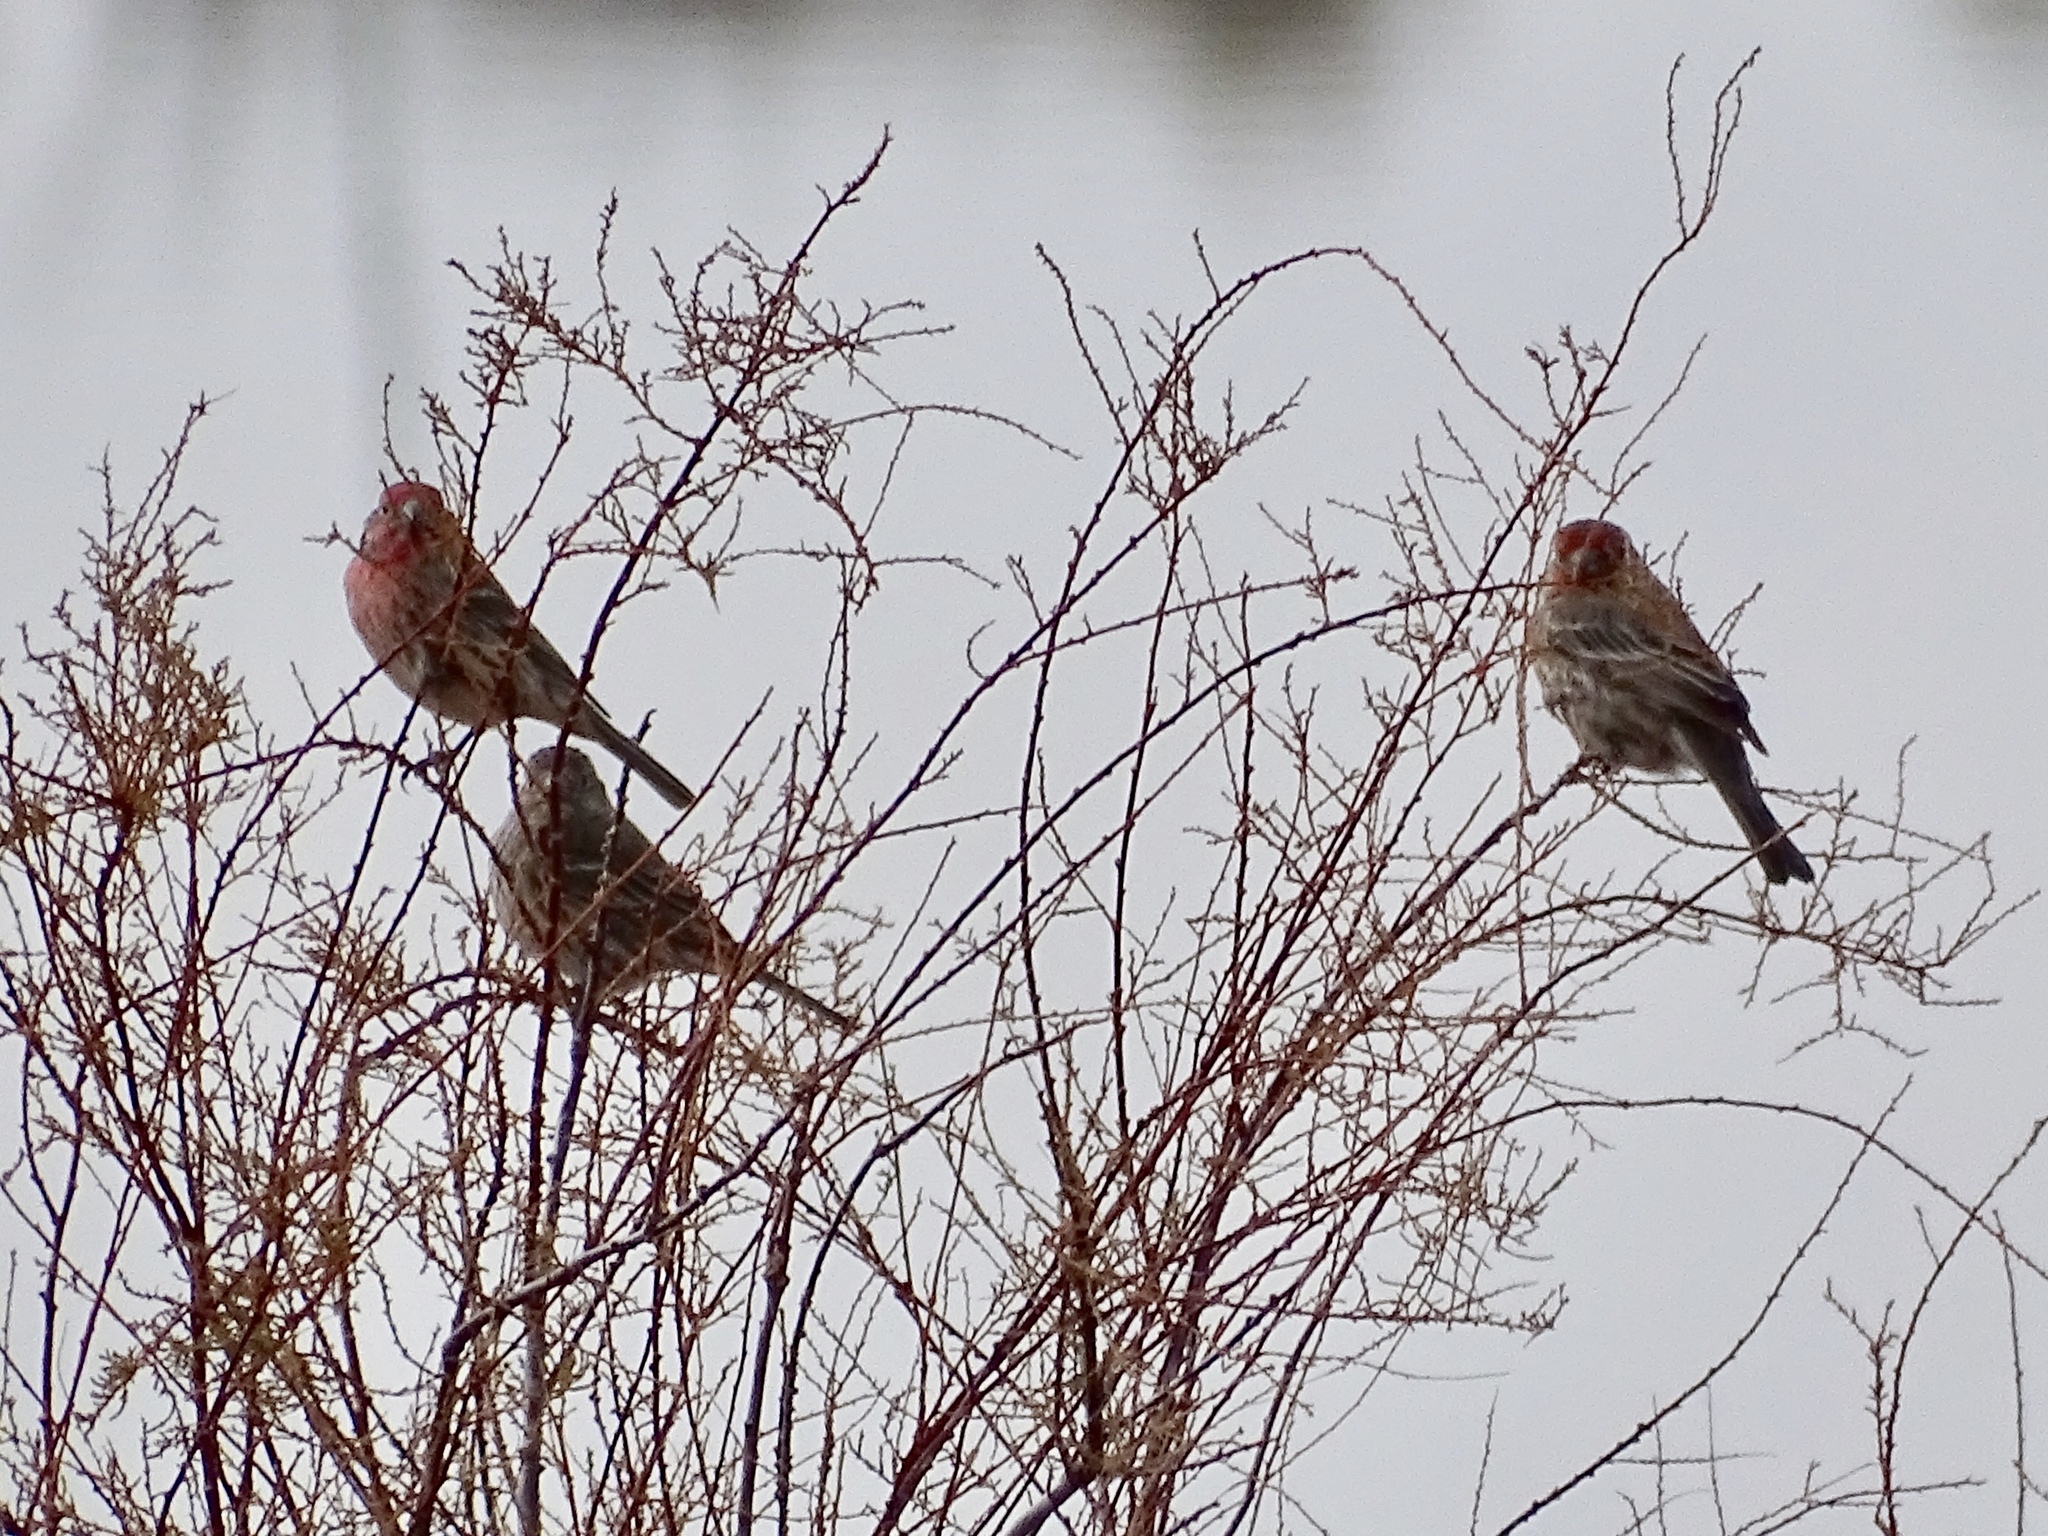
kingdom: Animalia
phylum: Chordata
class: Aves
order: Passeriformes
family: Fringillidae
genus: Haemorhous
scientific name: Haemorhous mexicanus
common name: House finch
